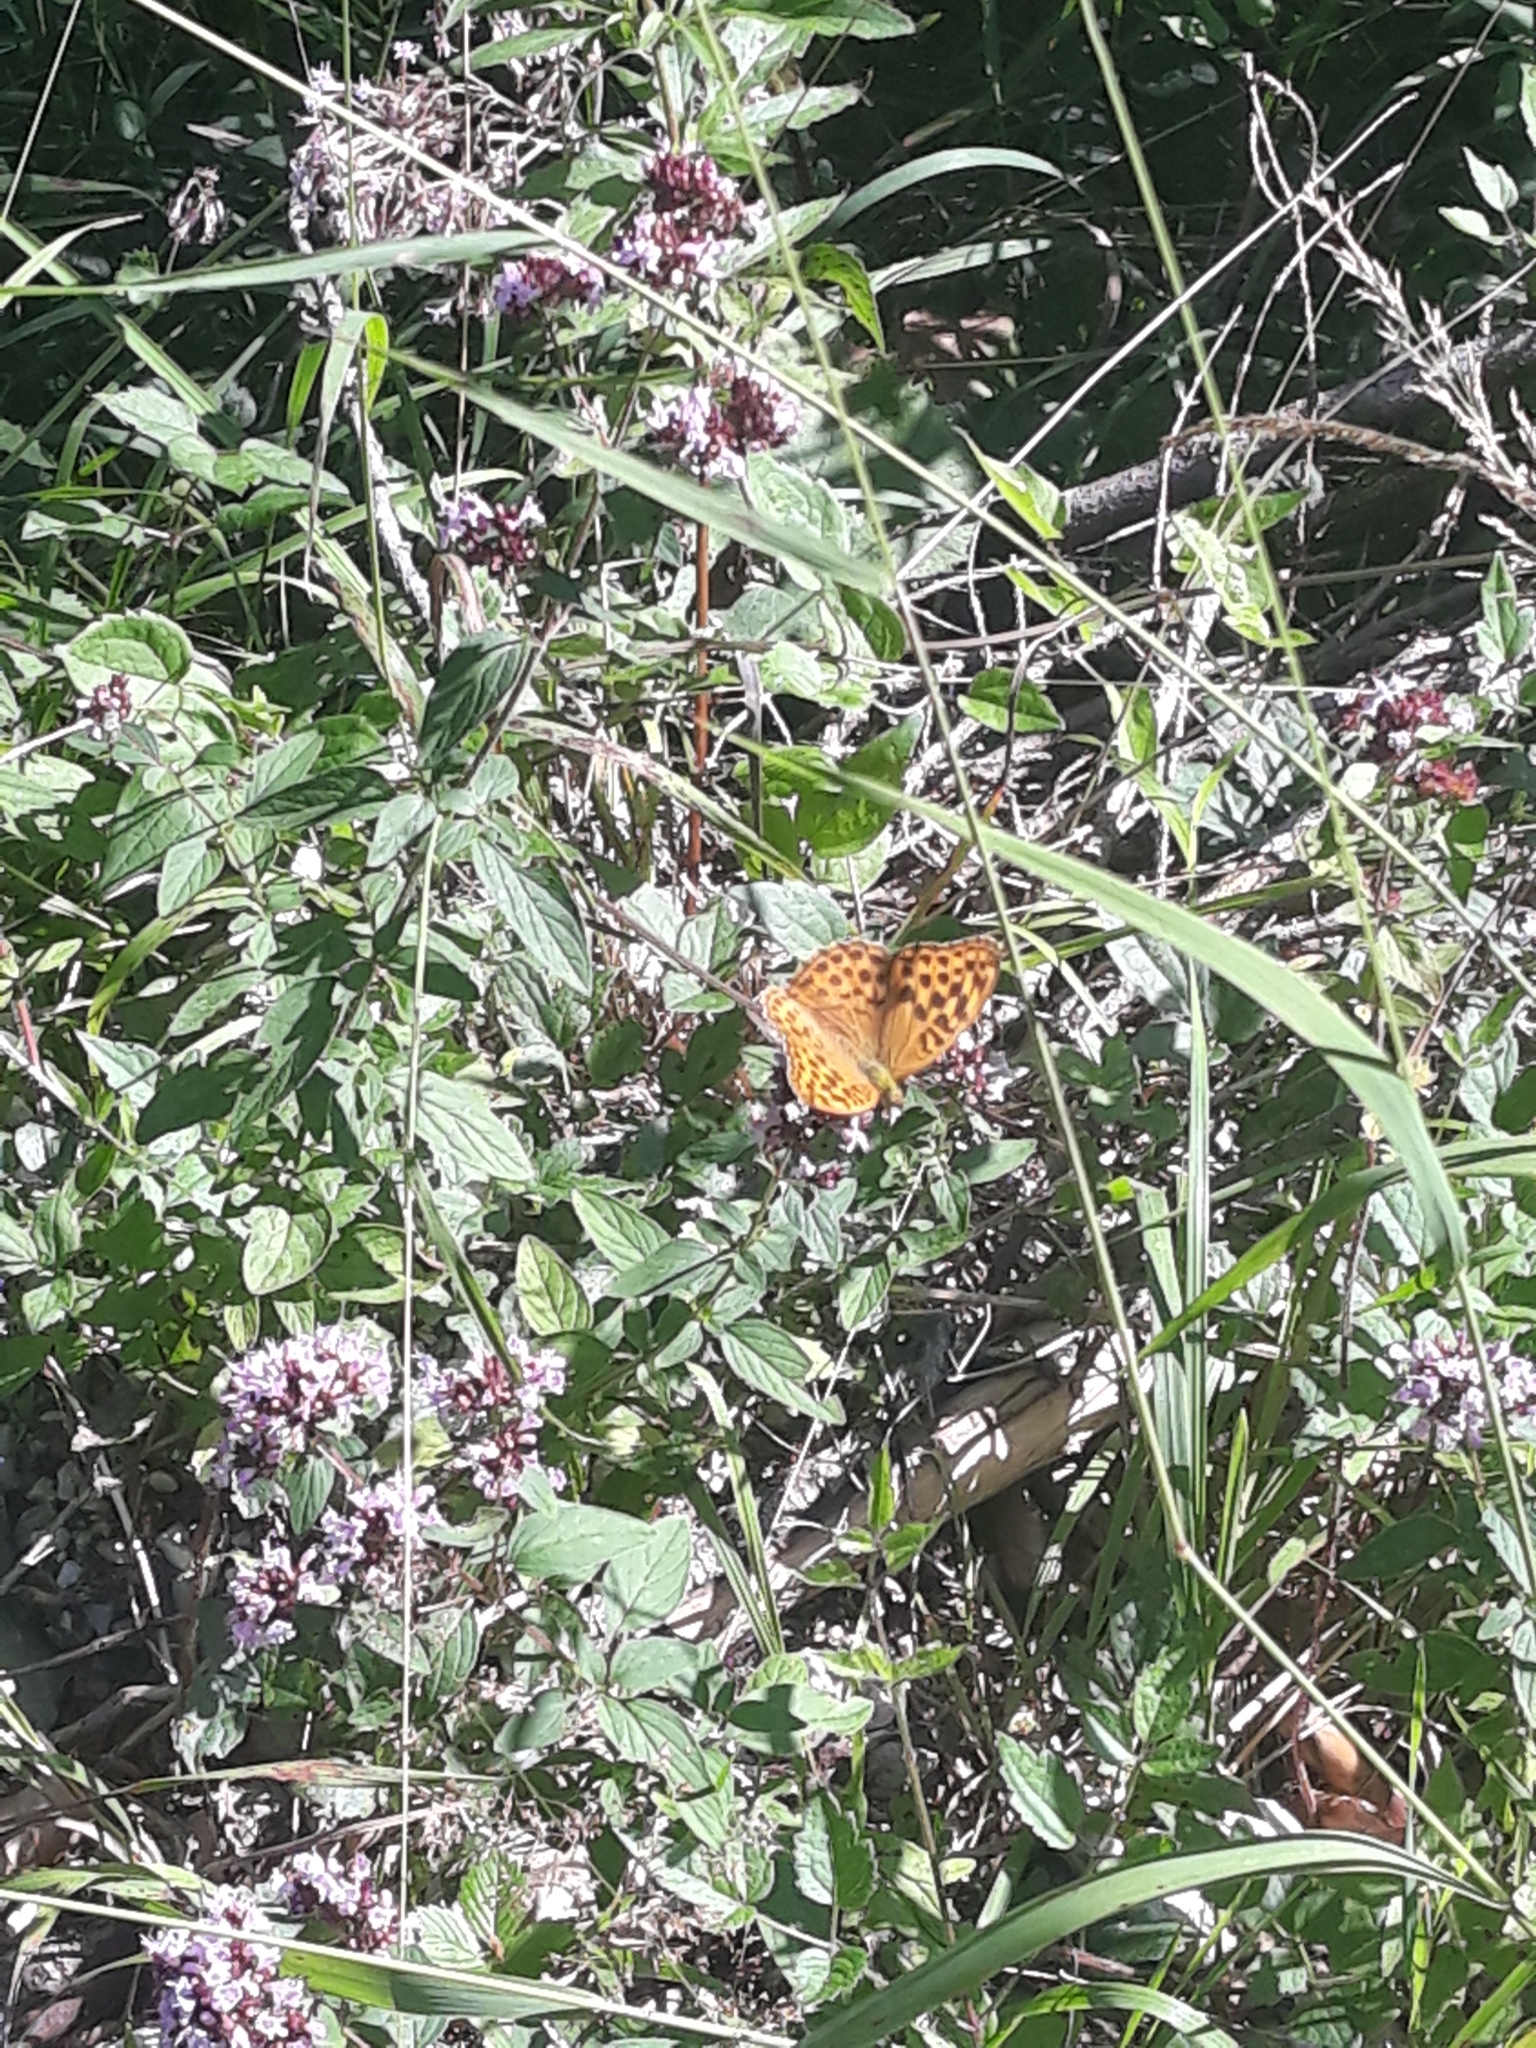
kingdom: Animalia
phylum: Arthropoda
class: Insecta
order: Lepidoptera
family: Nymphalidae
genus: Argynnis
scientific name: Argynnis paphia
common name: Silver-washed fritillary
